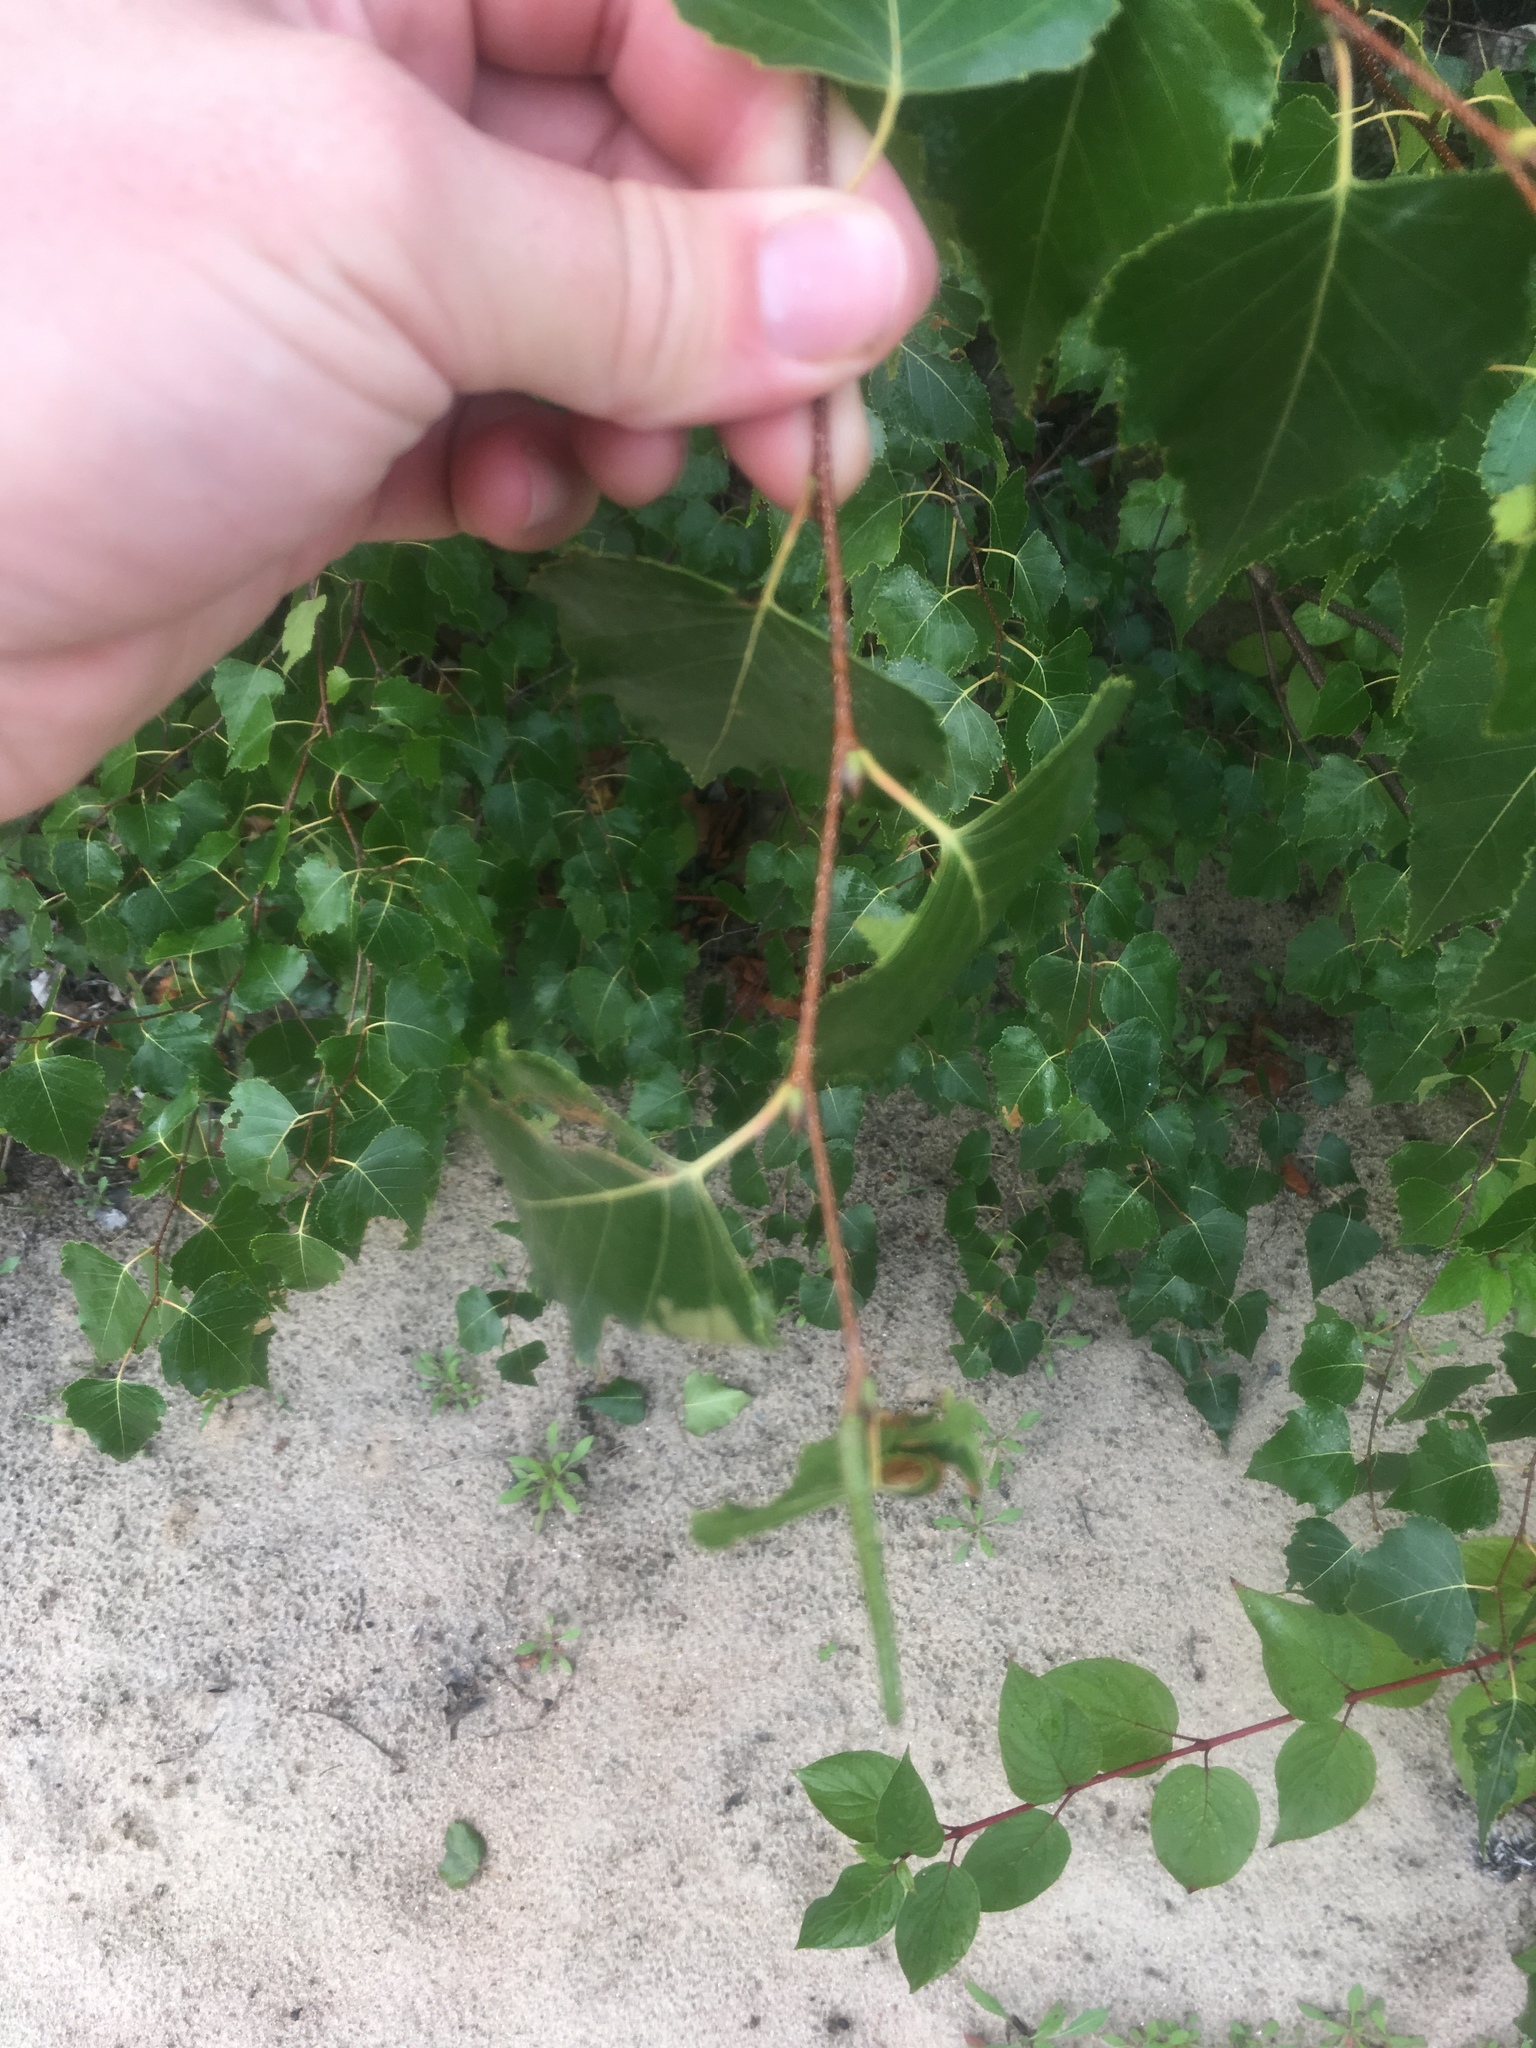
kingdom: Plantae
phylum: Tracheophyta
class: Magnoliopsida
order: Fagales
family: Betulaceae
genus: Betula
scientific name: Betula populifolia
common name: Fire birch
